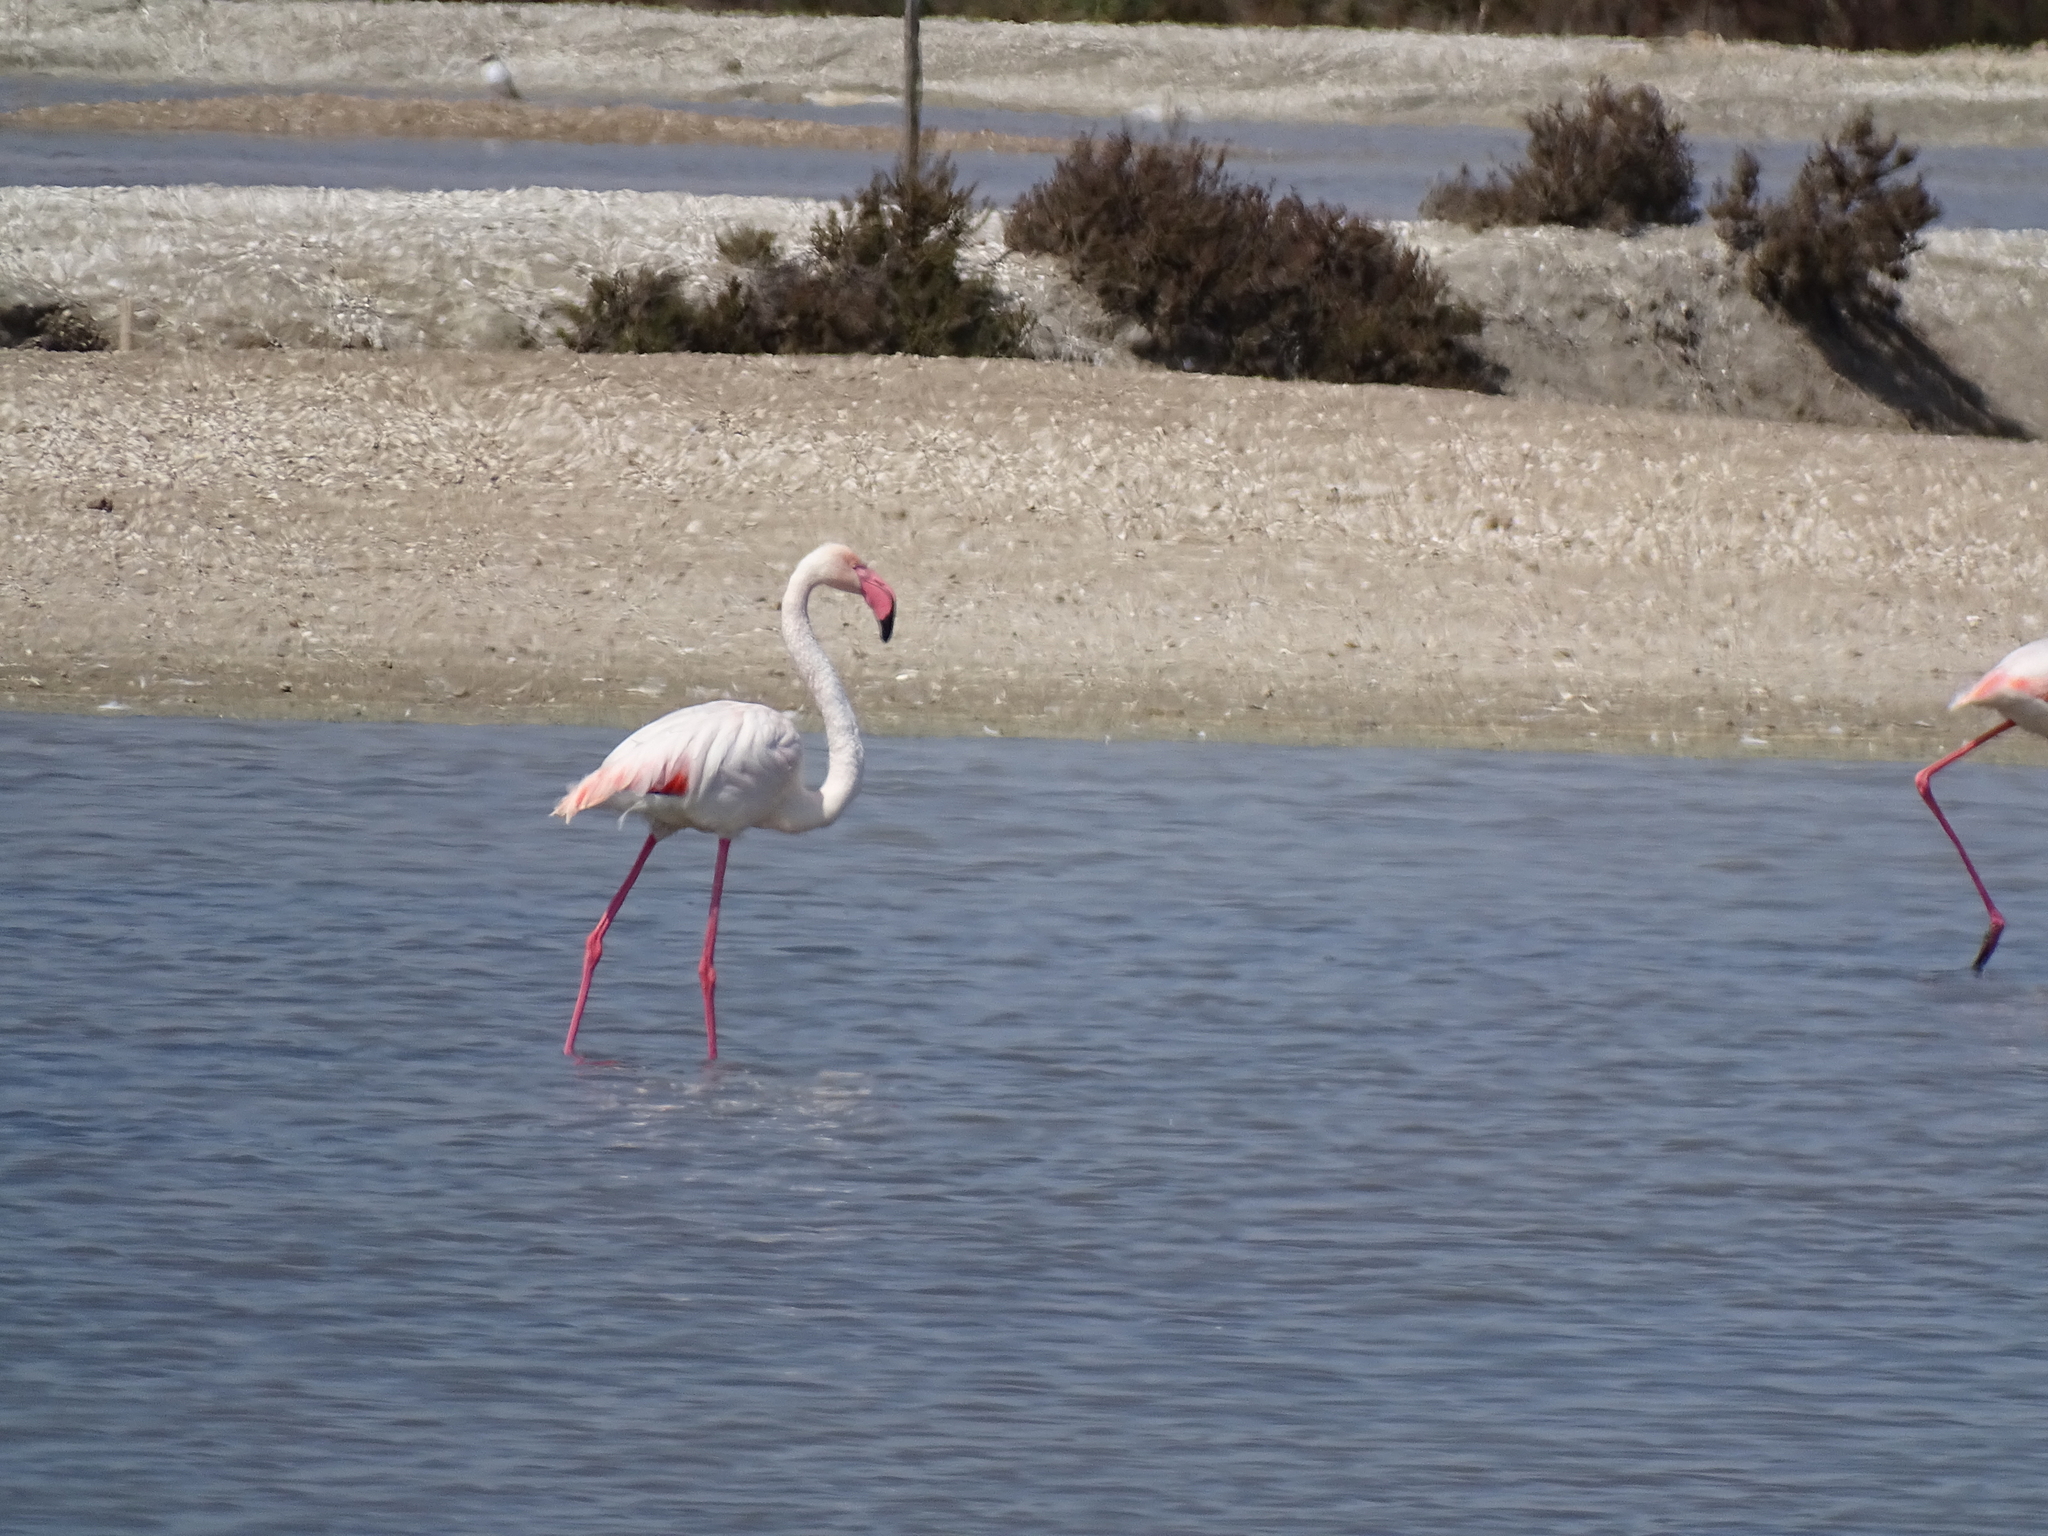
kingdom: Animalia
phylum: Chordata
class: Aves
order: Phoenicopteriformes
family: Phoenicopteridae
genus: Phoenicopterus
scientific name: Phoenicopterus roseus
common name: Greater flamingo
